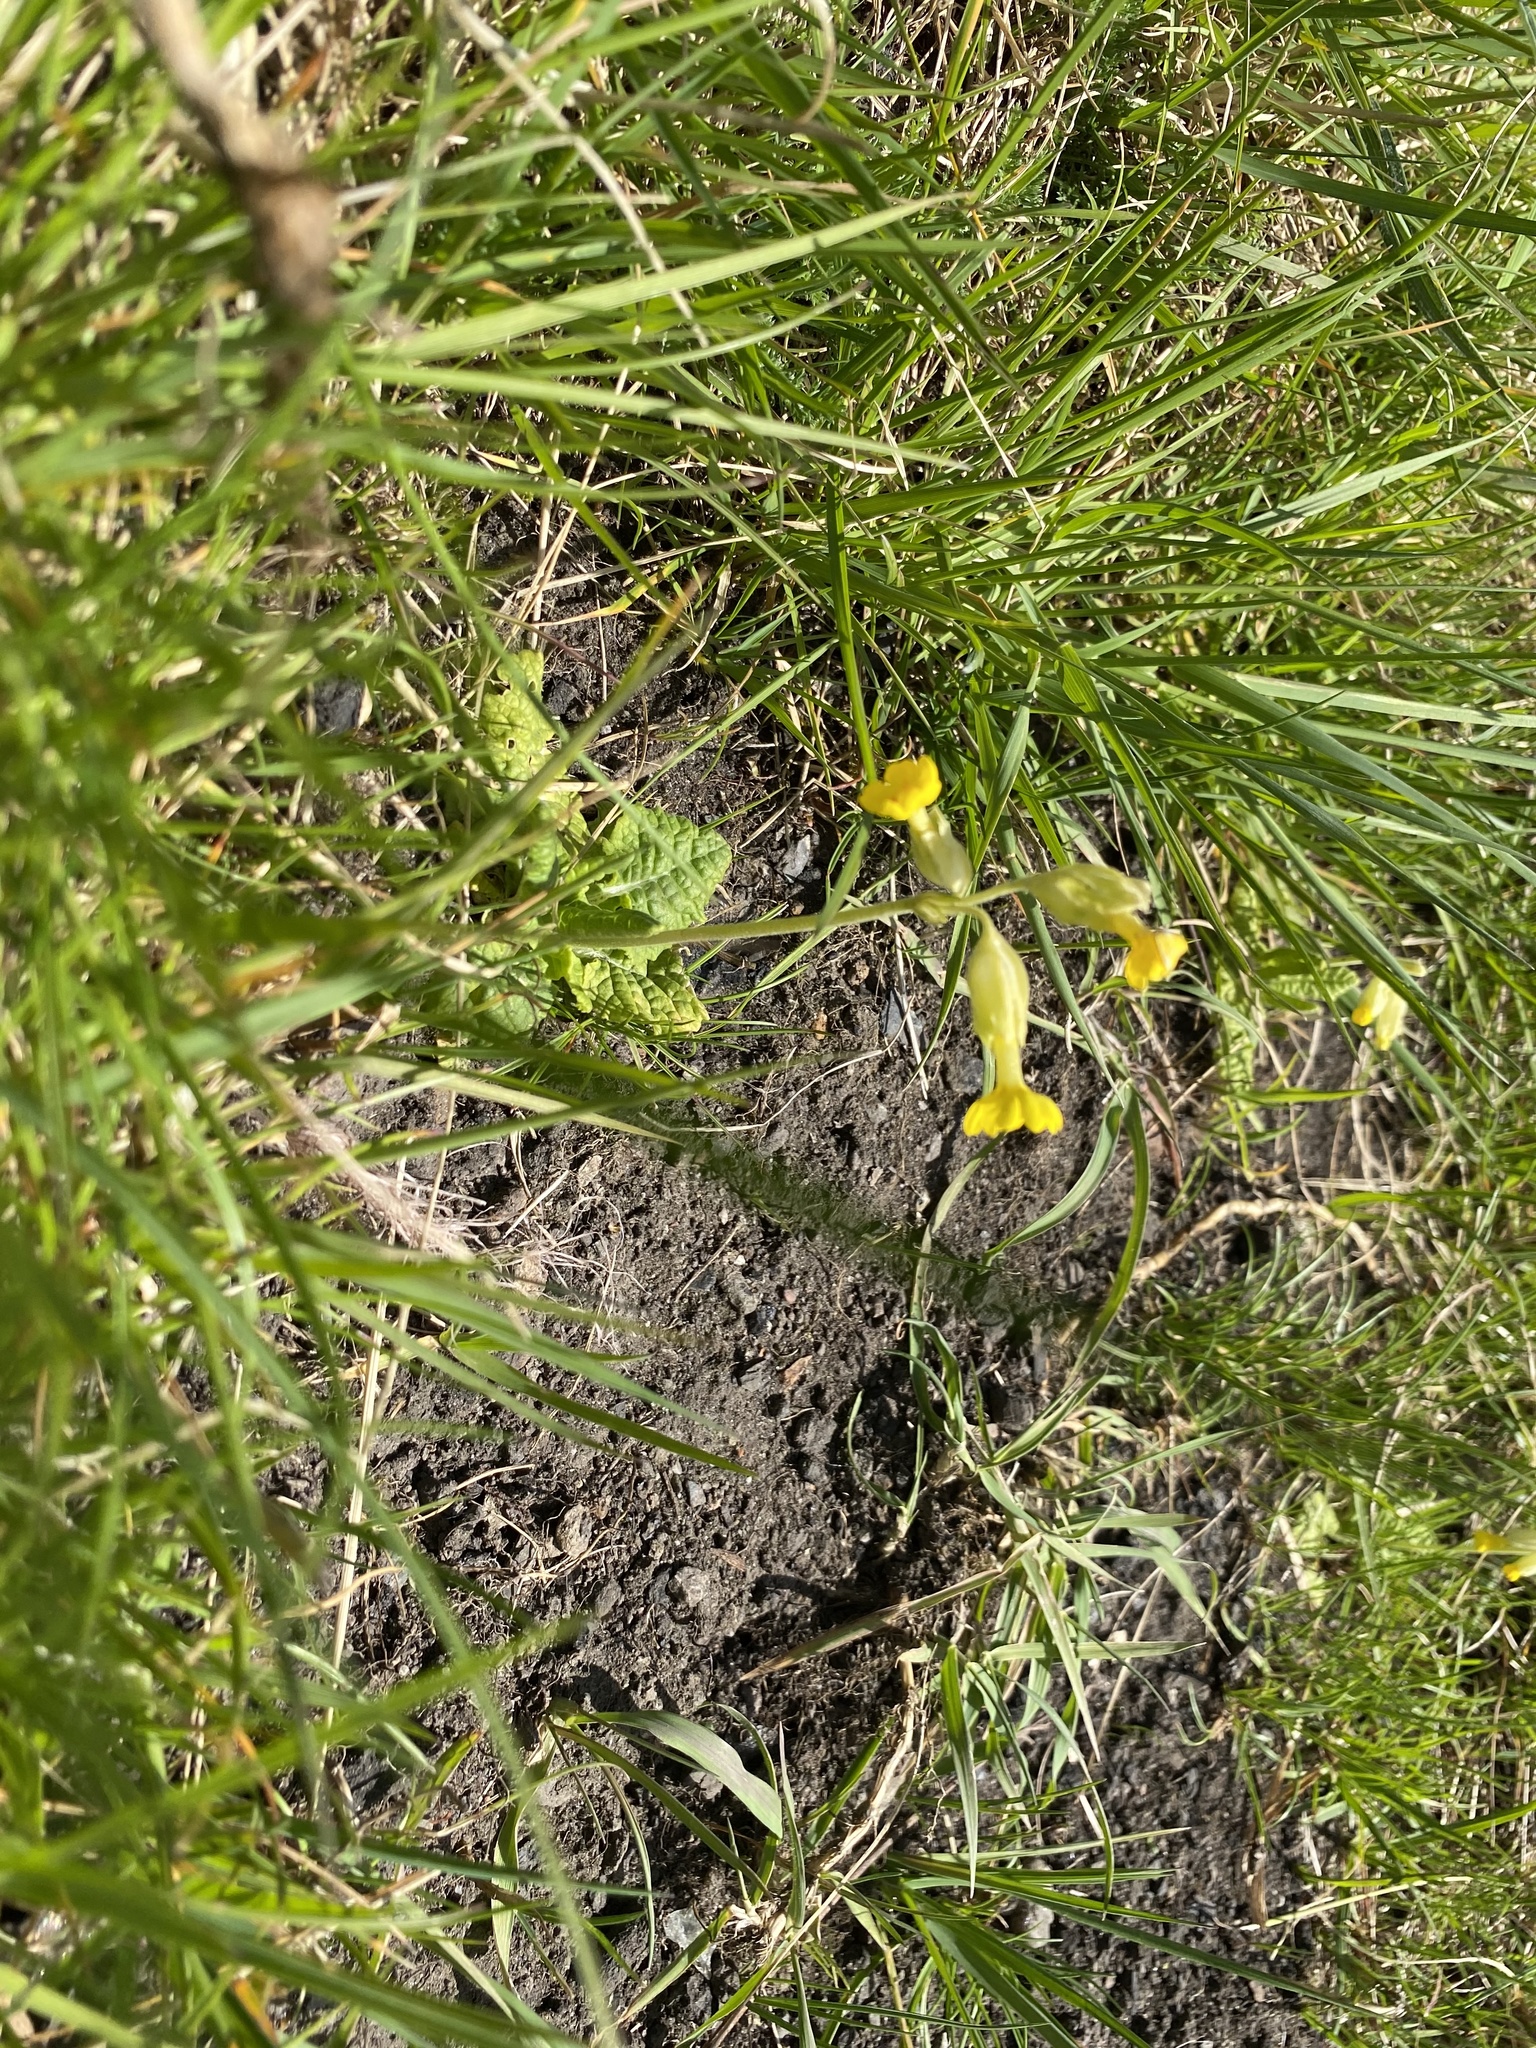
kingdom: Plantae
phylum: Tracheophyta
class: Magnoliopsida
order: Ericales
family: Primulaceae
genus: Primula
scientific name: Primula veris
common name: Cowslip
